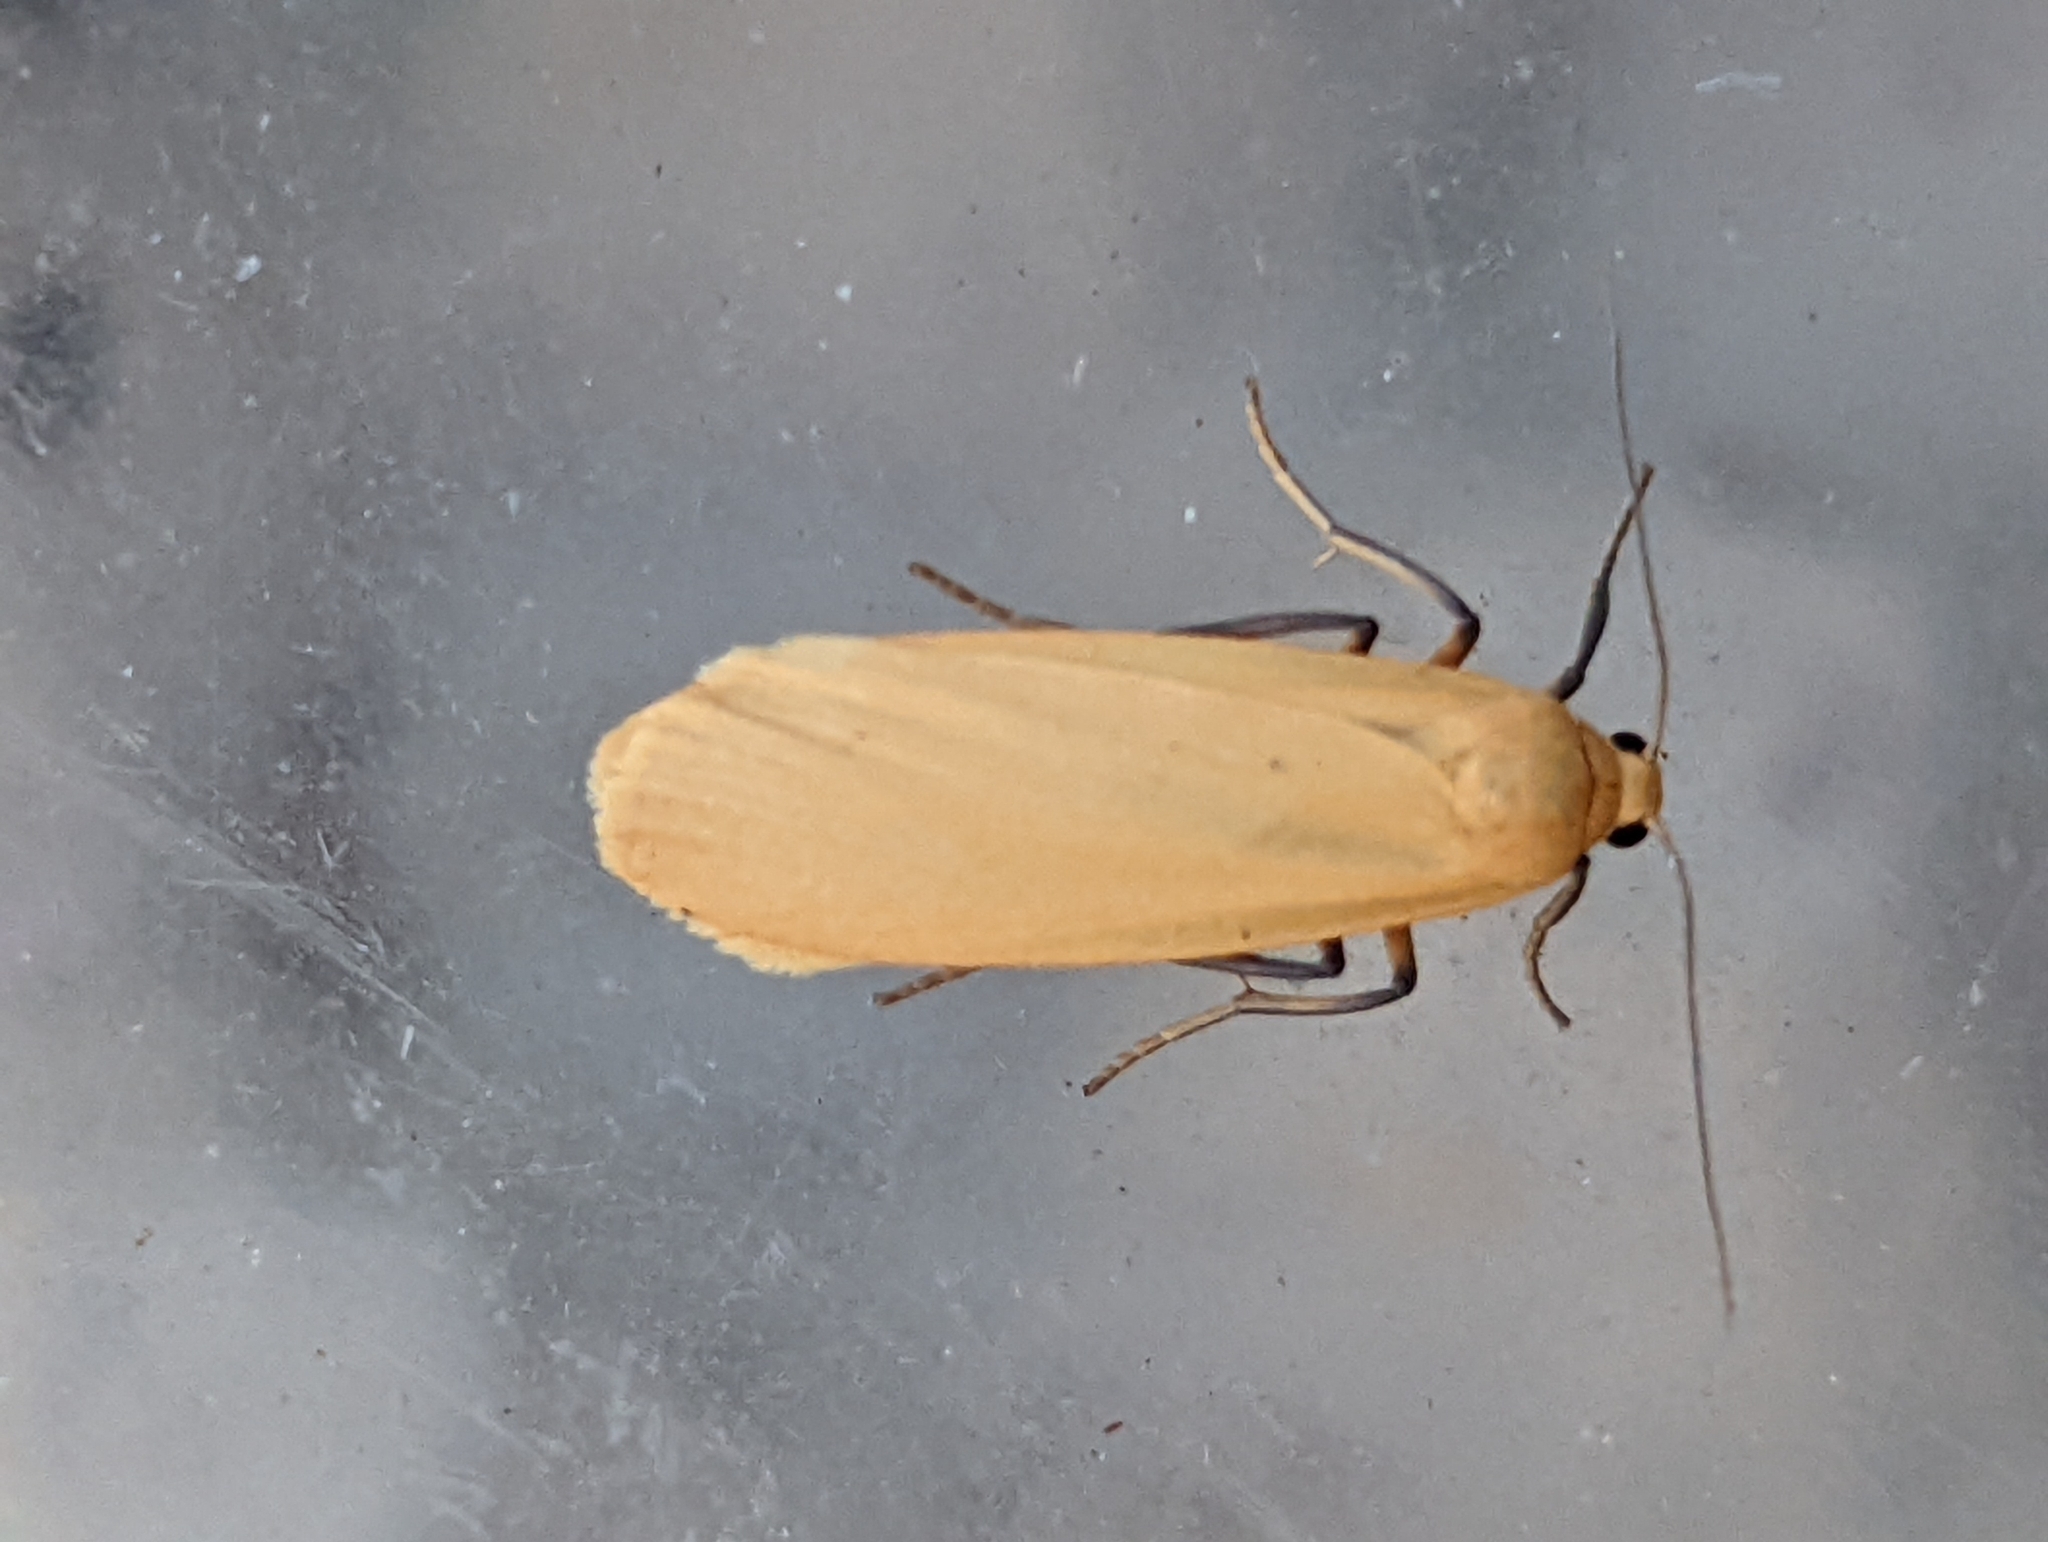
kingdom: Animalia
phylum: Arthropoda
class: Insecta
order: Lepidoptera
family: Erebidae
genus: Katha
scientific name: Katha depressa
